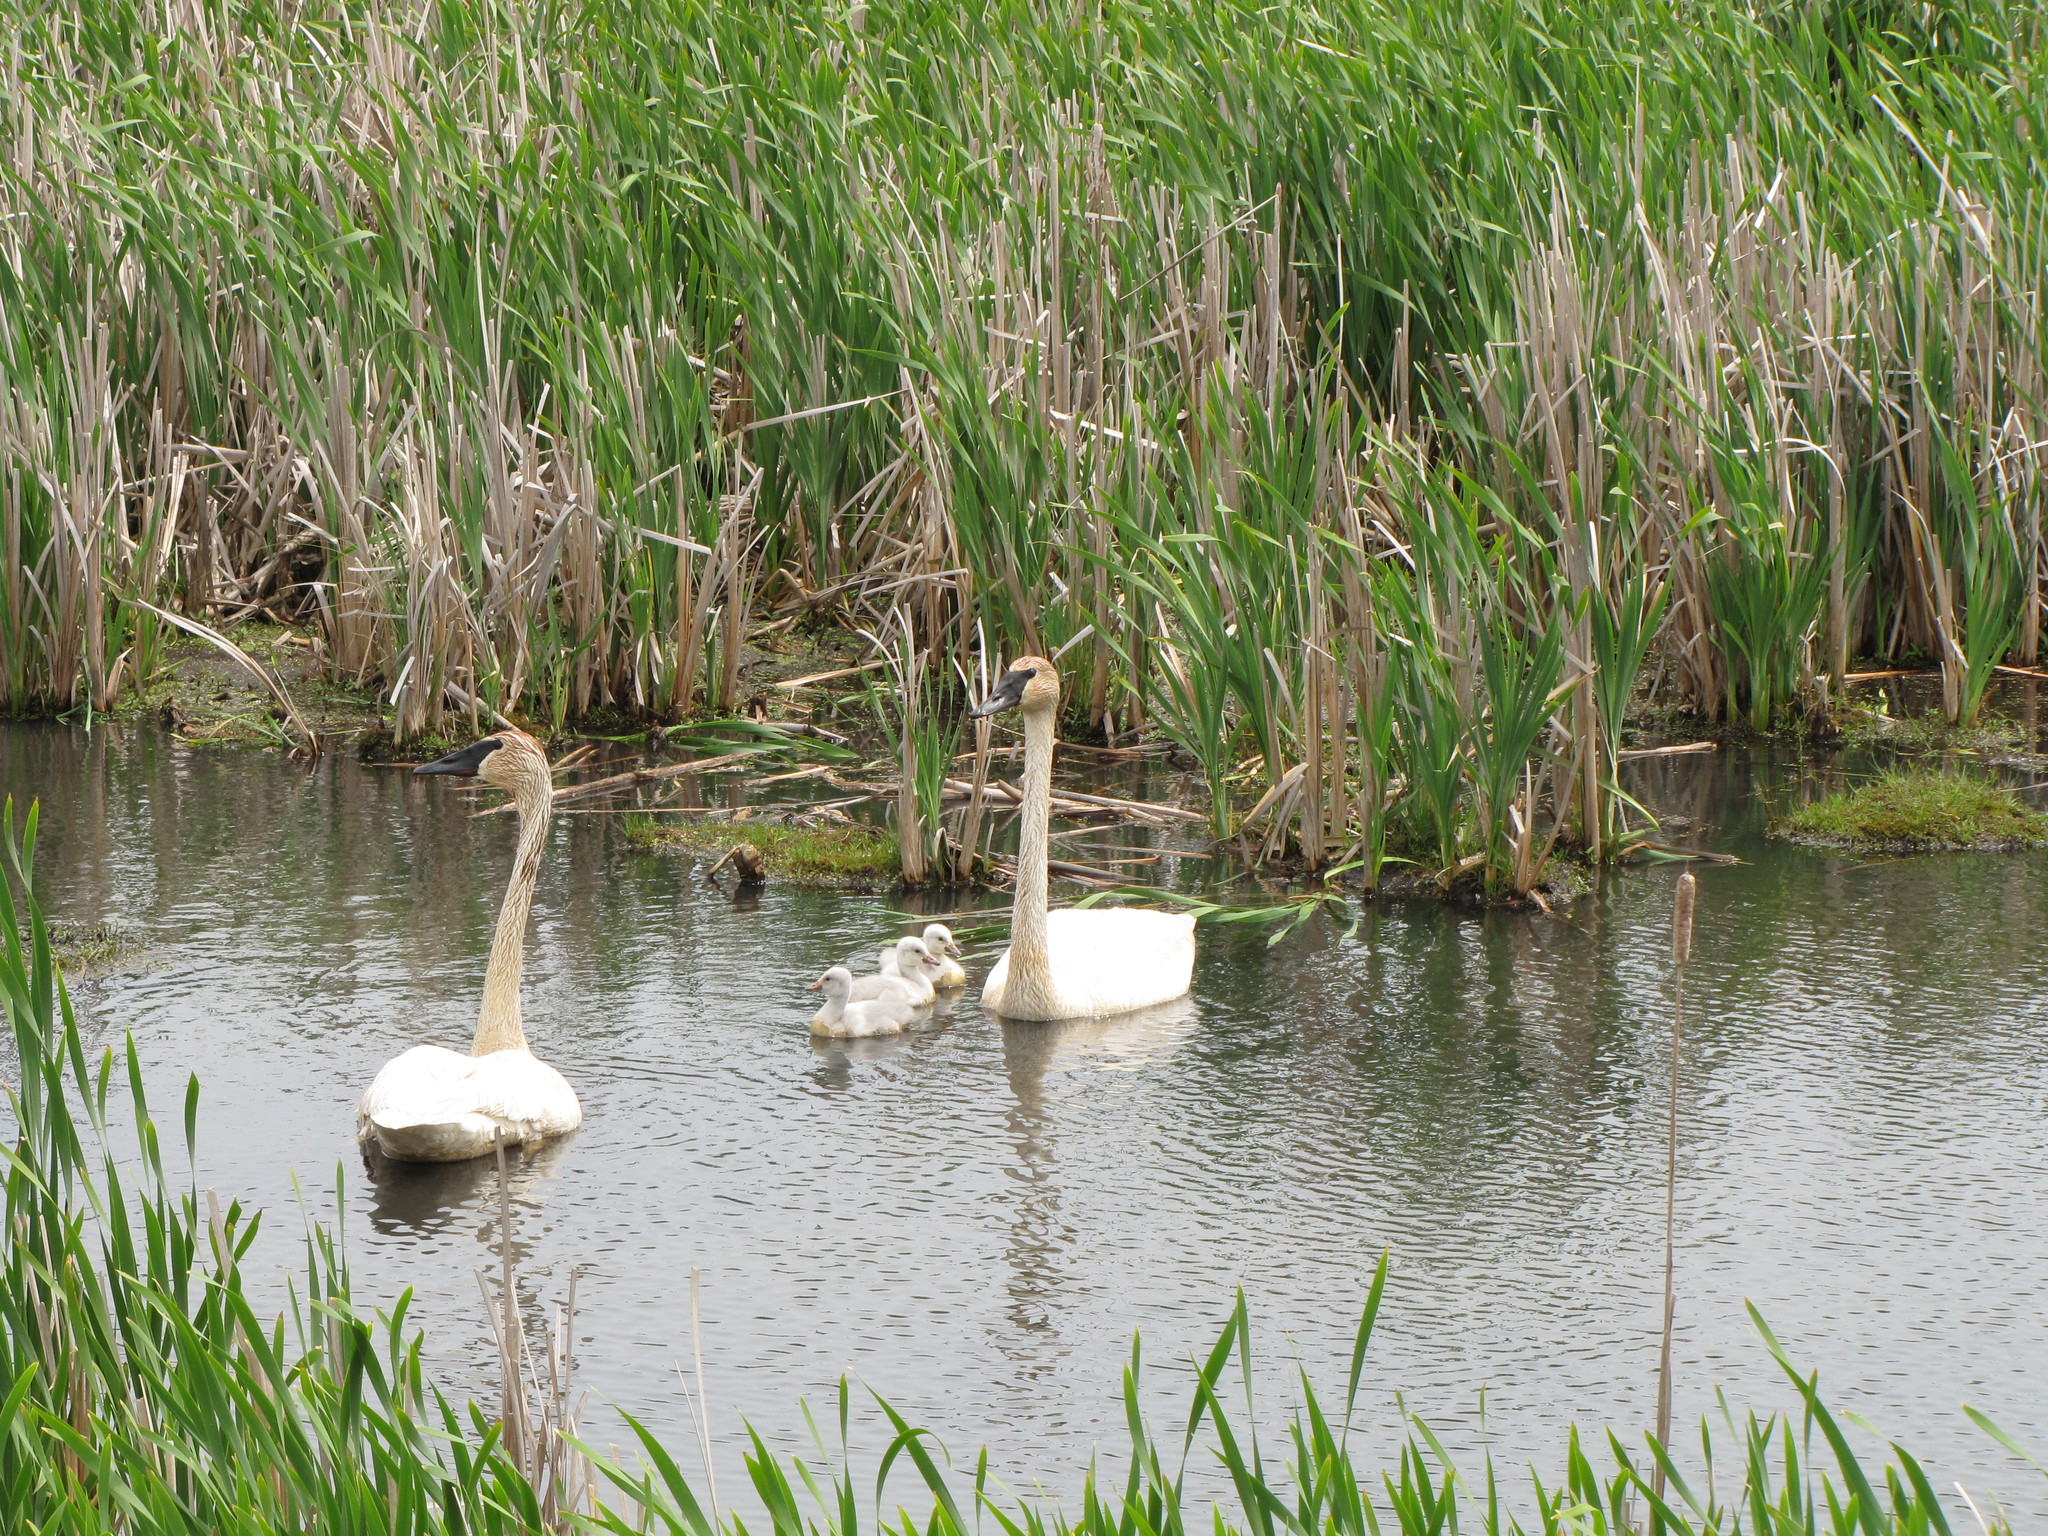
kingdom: Animalia
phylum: Chordata
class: Aves
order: Anseriformes
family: Anatidae
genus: Cygnus
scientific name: Cygnus buccinator
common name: Trumpeter swan
